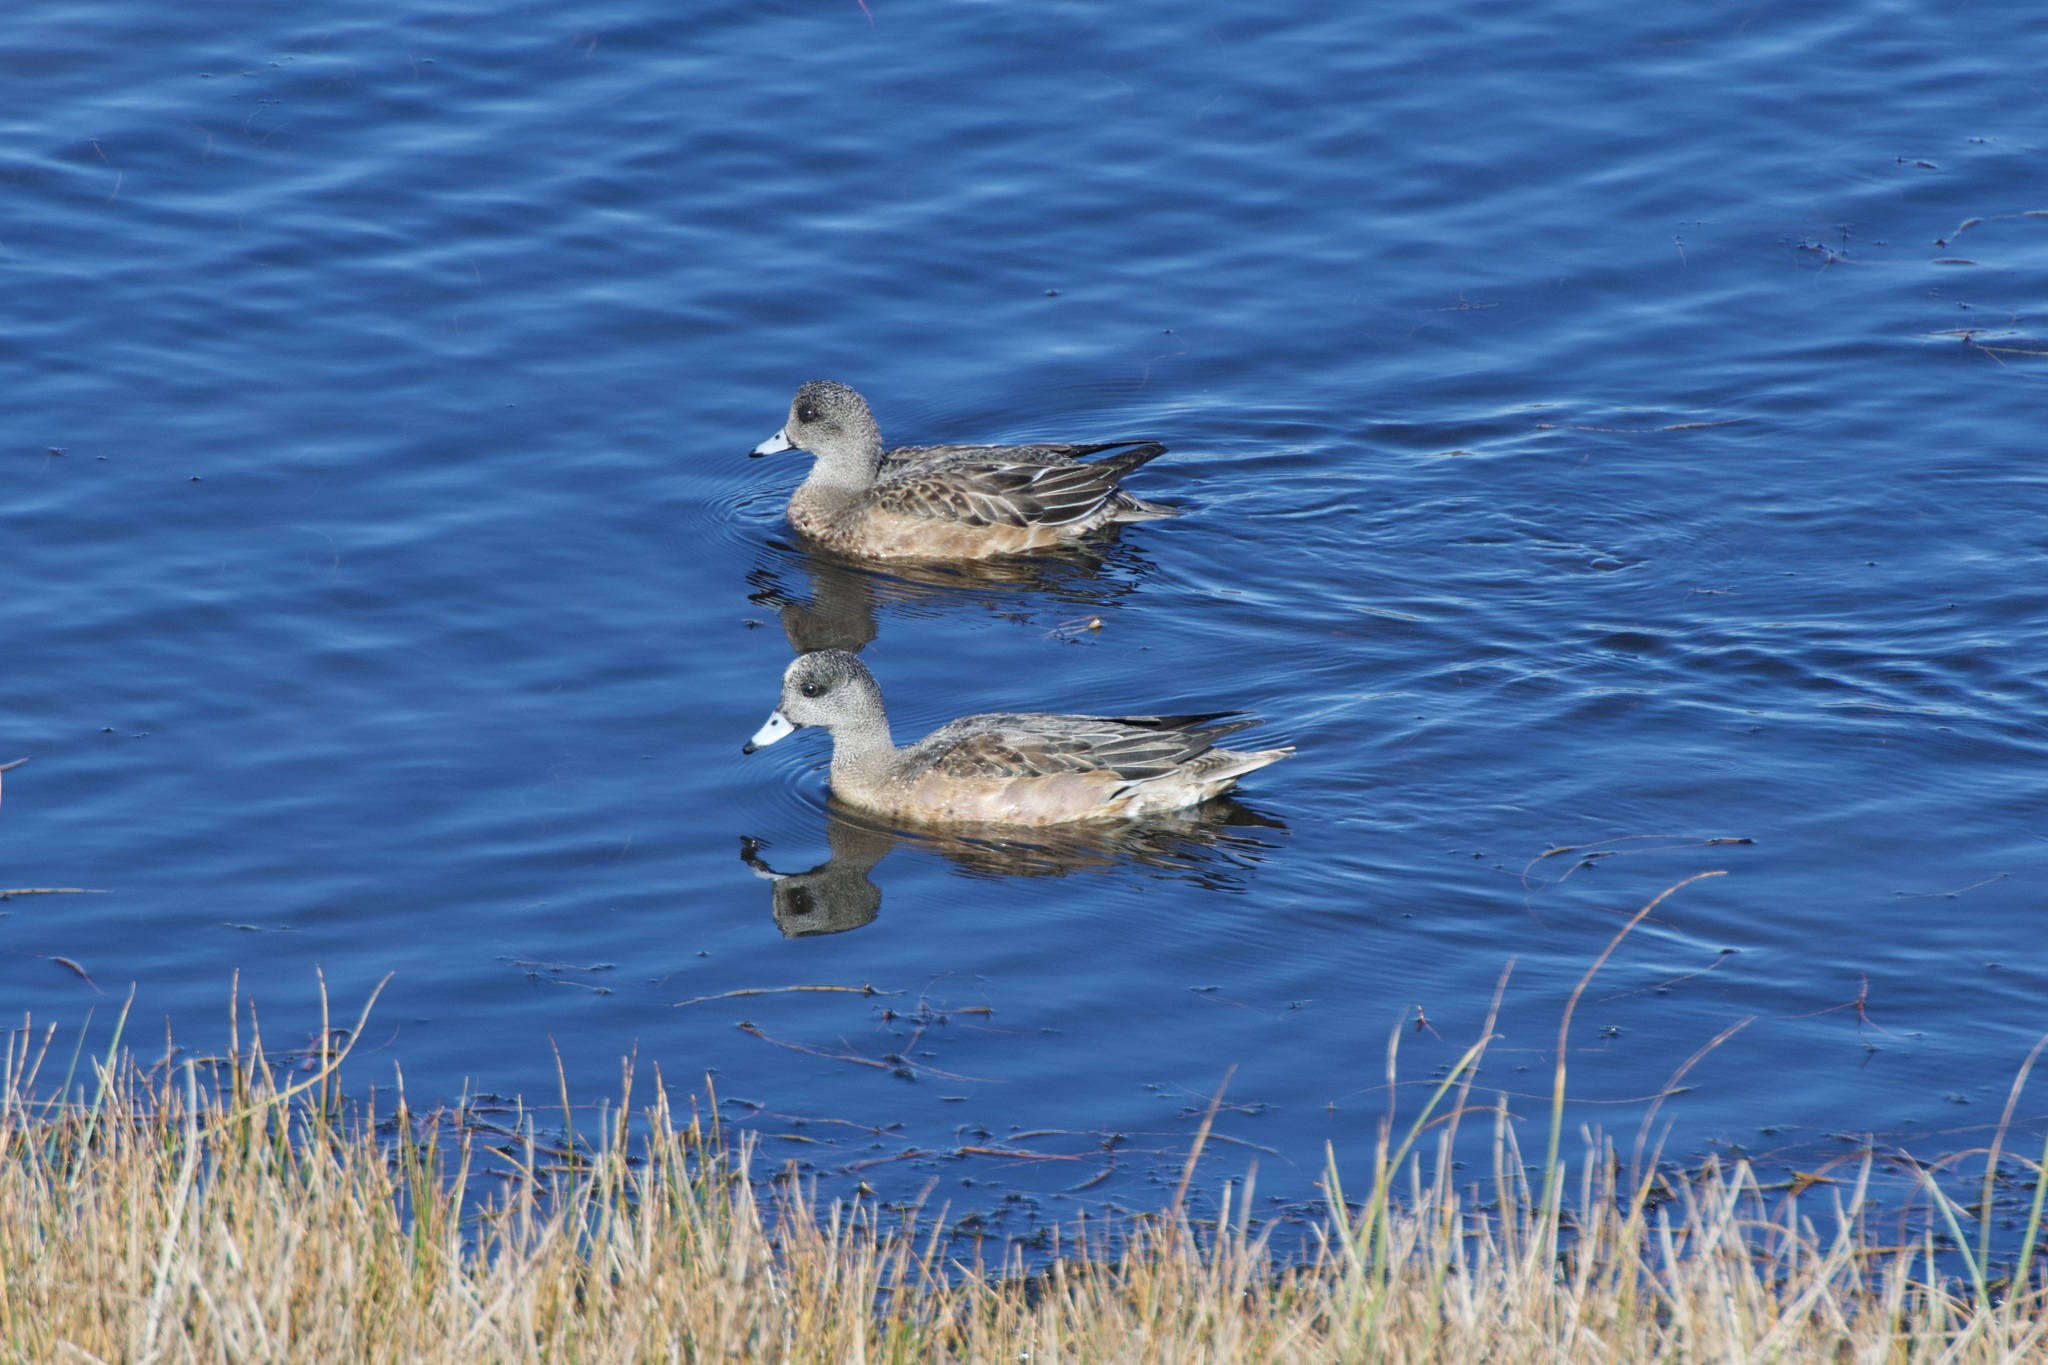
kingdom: Animalia
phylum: Chordata
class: Aves
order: Anseriformes
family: Anatidae
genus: Mareca
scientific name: Mareca americana
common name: American wigeon
